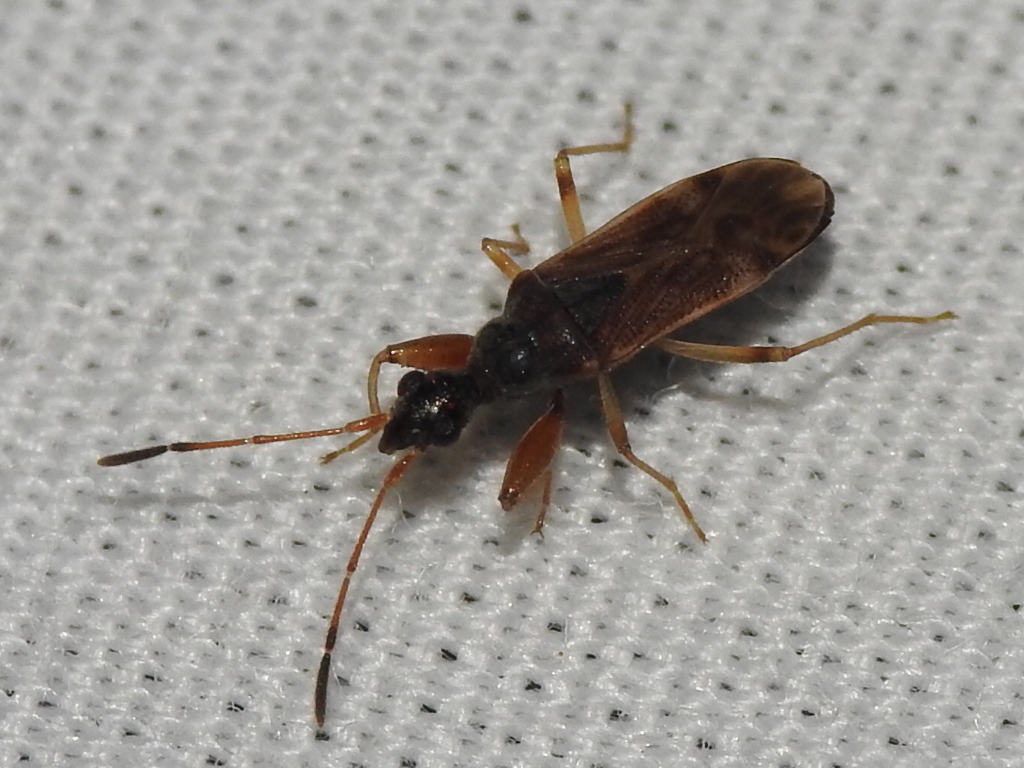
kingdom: Animalia
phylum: Arthropoda
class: Insecta
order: Hemiptera
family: Rhyparochromidae
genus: Heraeus
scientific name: Heraeus plebejus
